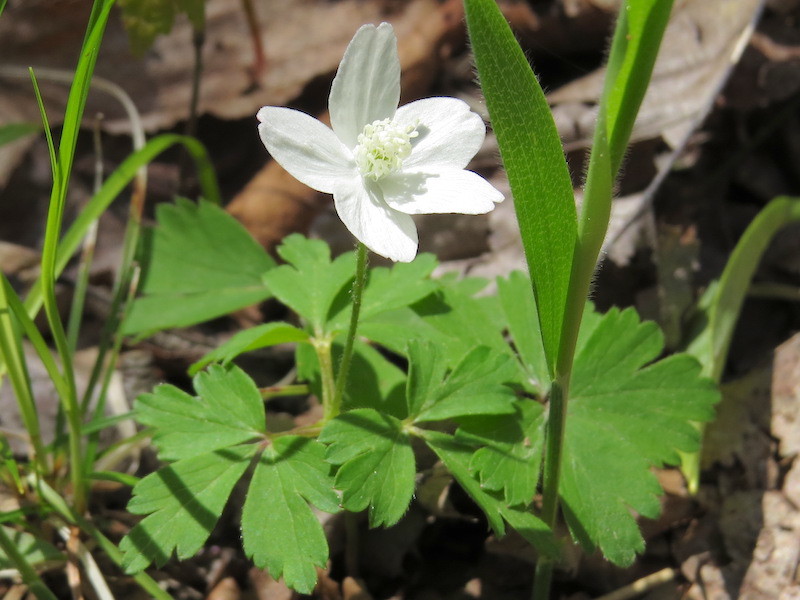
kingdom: Plantae
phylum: Tracheophyta
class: Magnoliopsida
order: Ranunculales
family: Ranunculaceae
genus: Anemone
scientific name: Anemone quinquefolia
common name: Wood anemone
